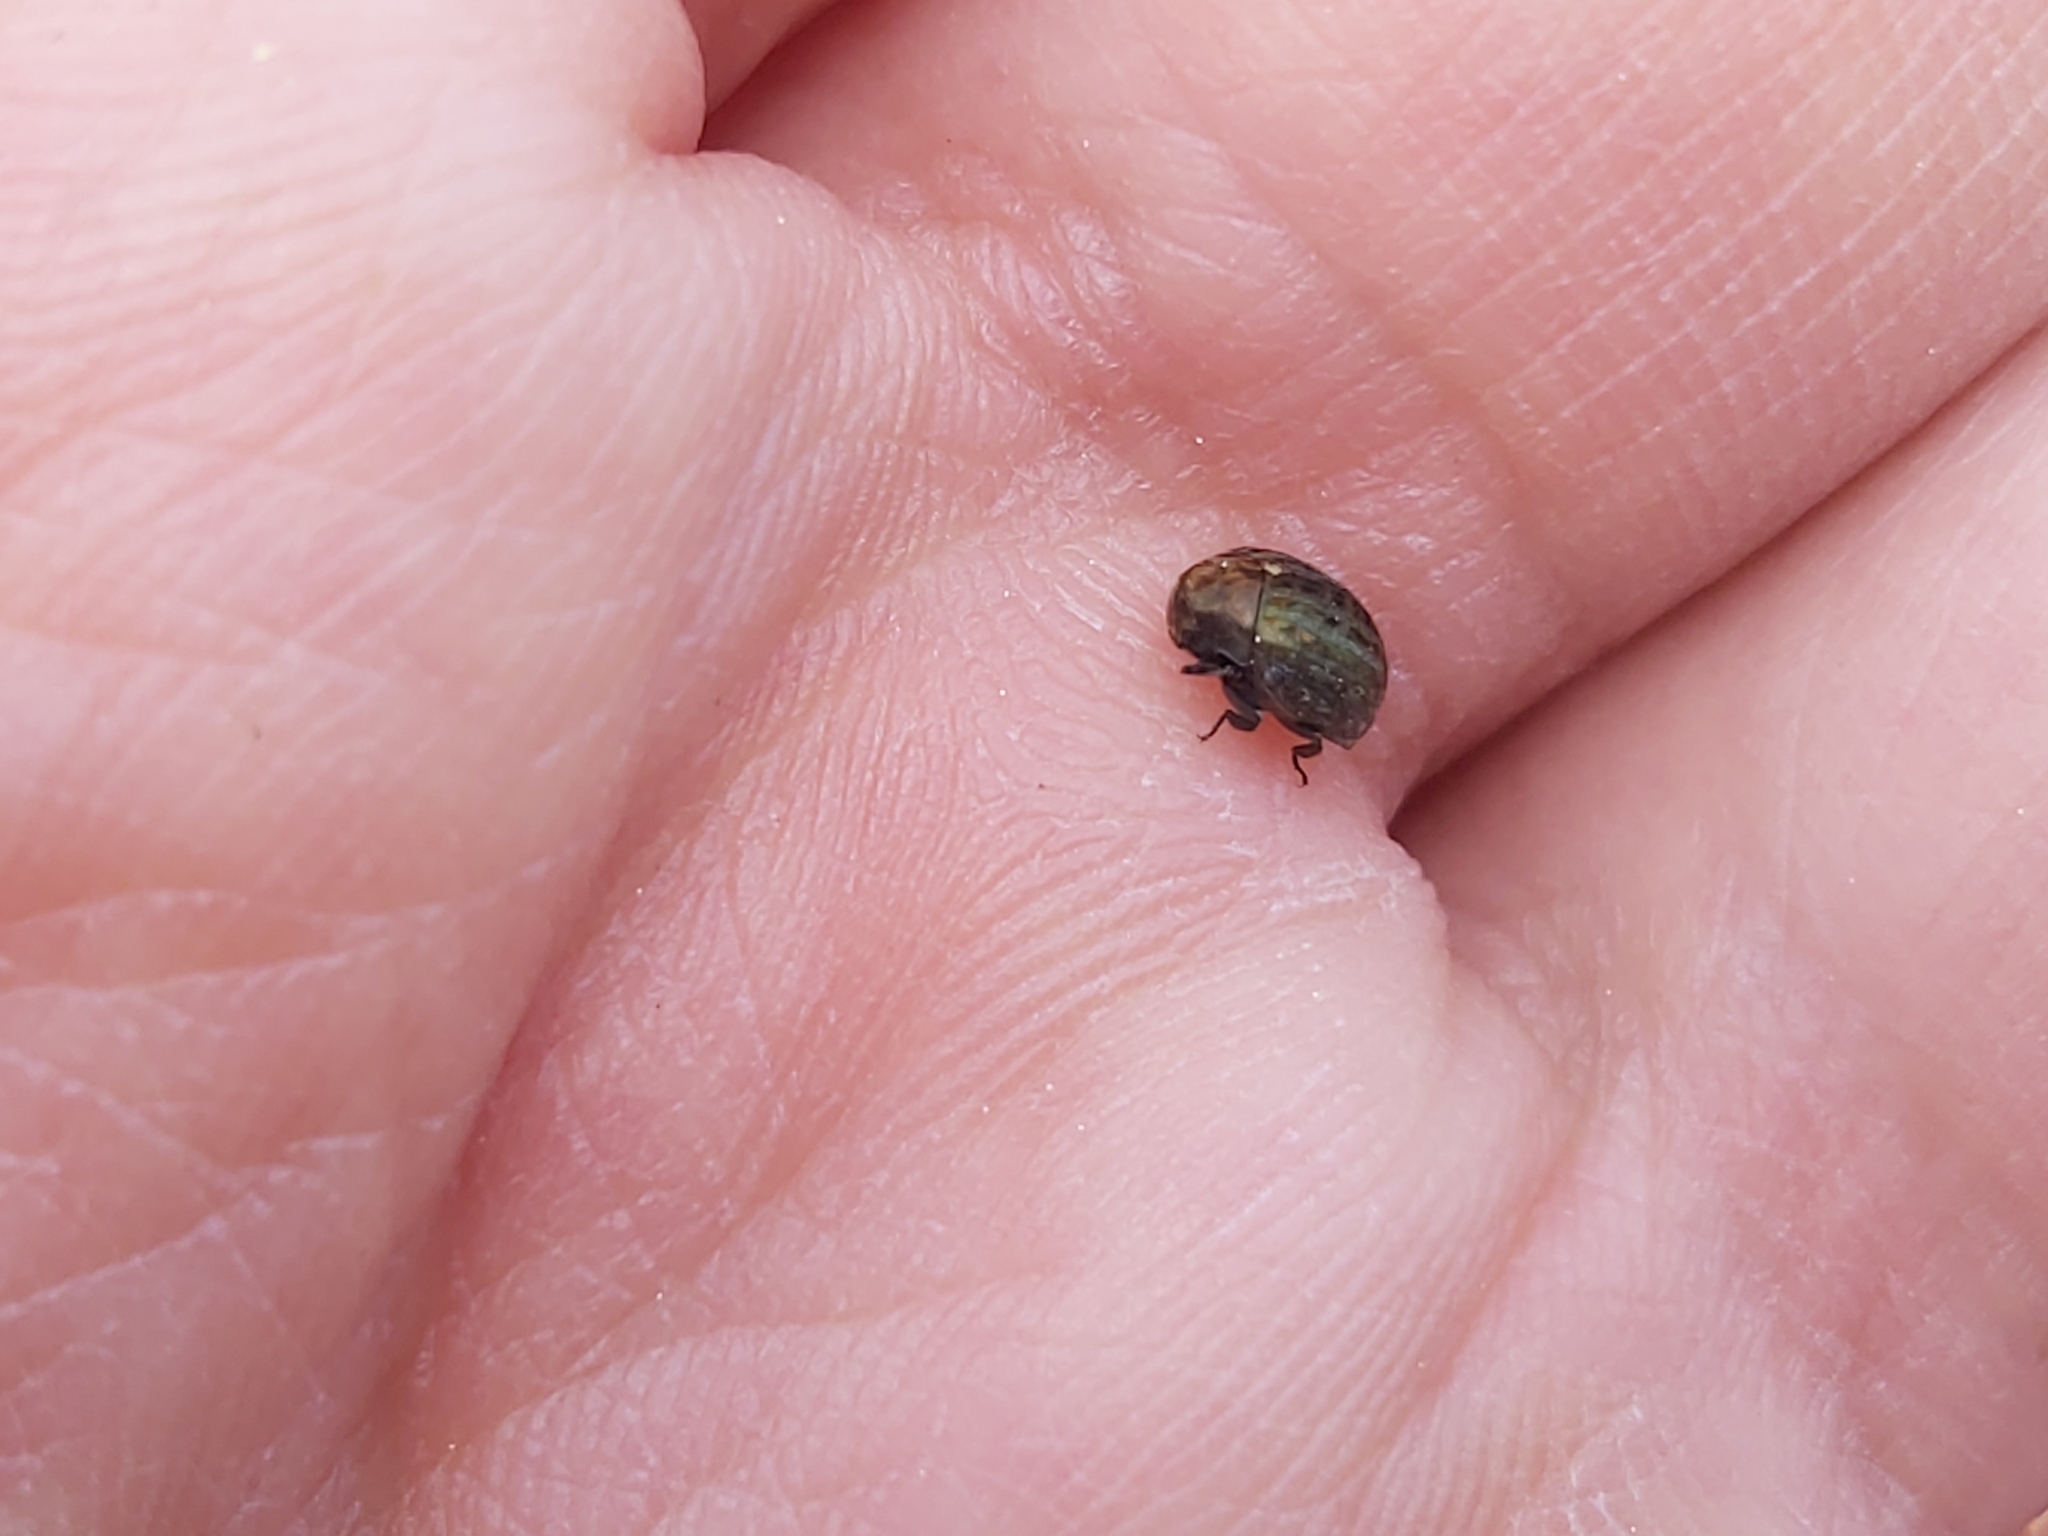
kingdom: Animalia
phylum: Arthropoda
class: Insecta
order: Coleoptera
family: Byrrhidae
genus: Cytilus
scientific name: Cytilus sericeus
